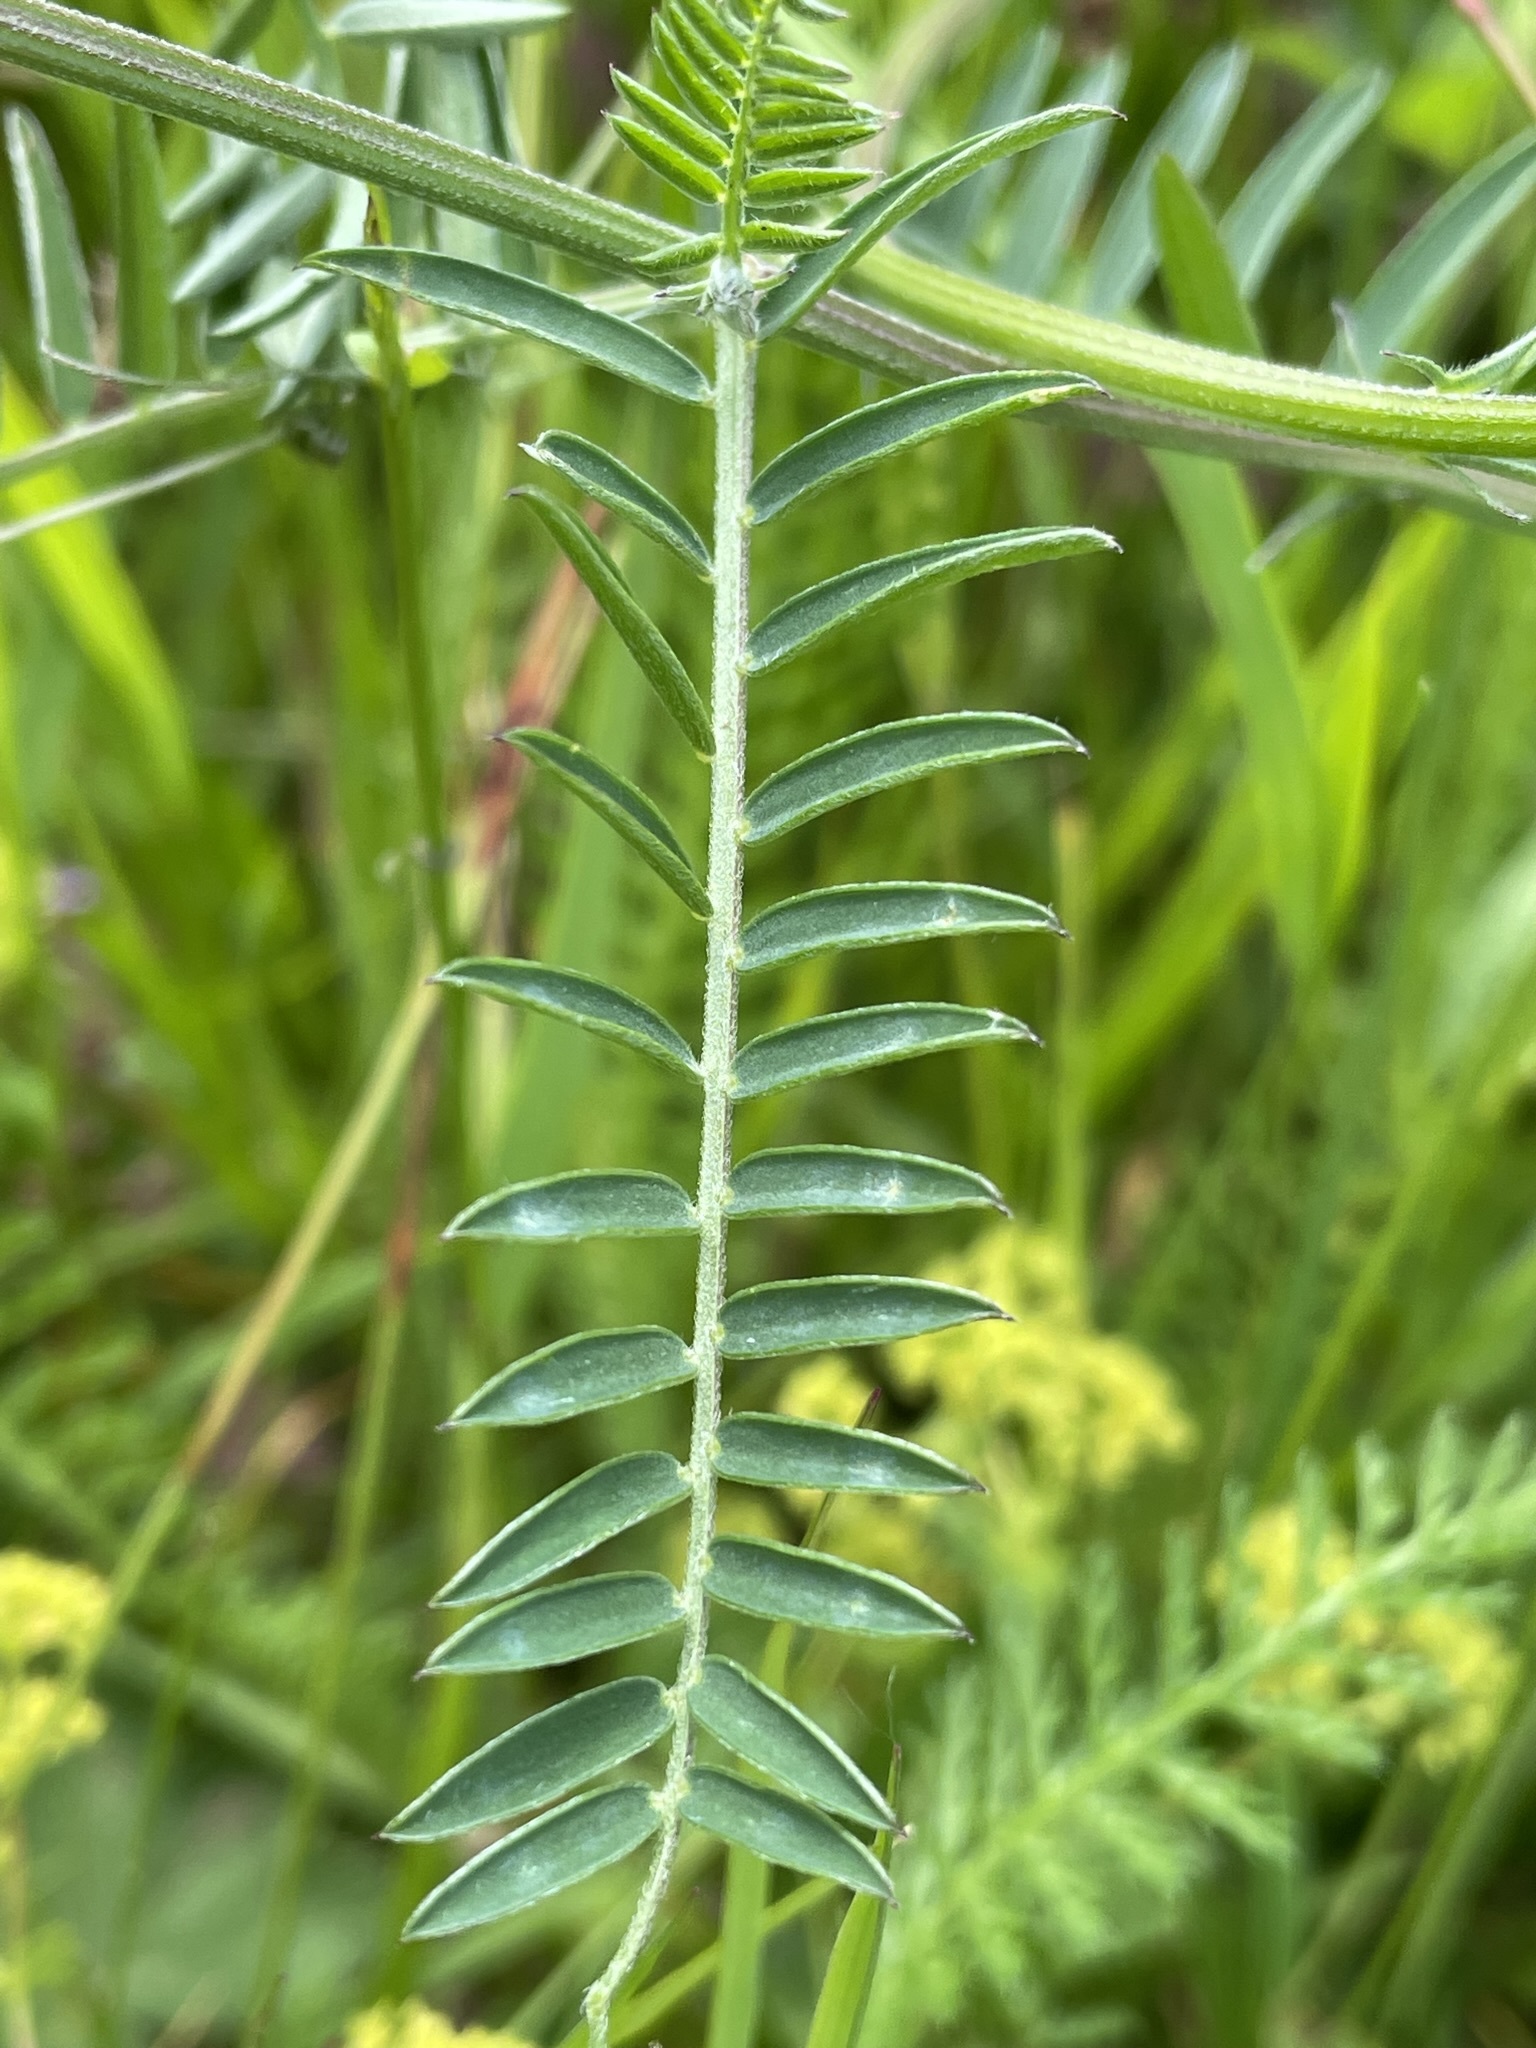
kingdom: Plantae
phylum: Tracheophyta
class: Magnoliopsida
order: Fabales
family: Fabaceae
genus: Vicia
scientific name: Vicia cracca
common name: Bird vetch
